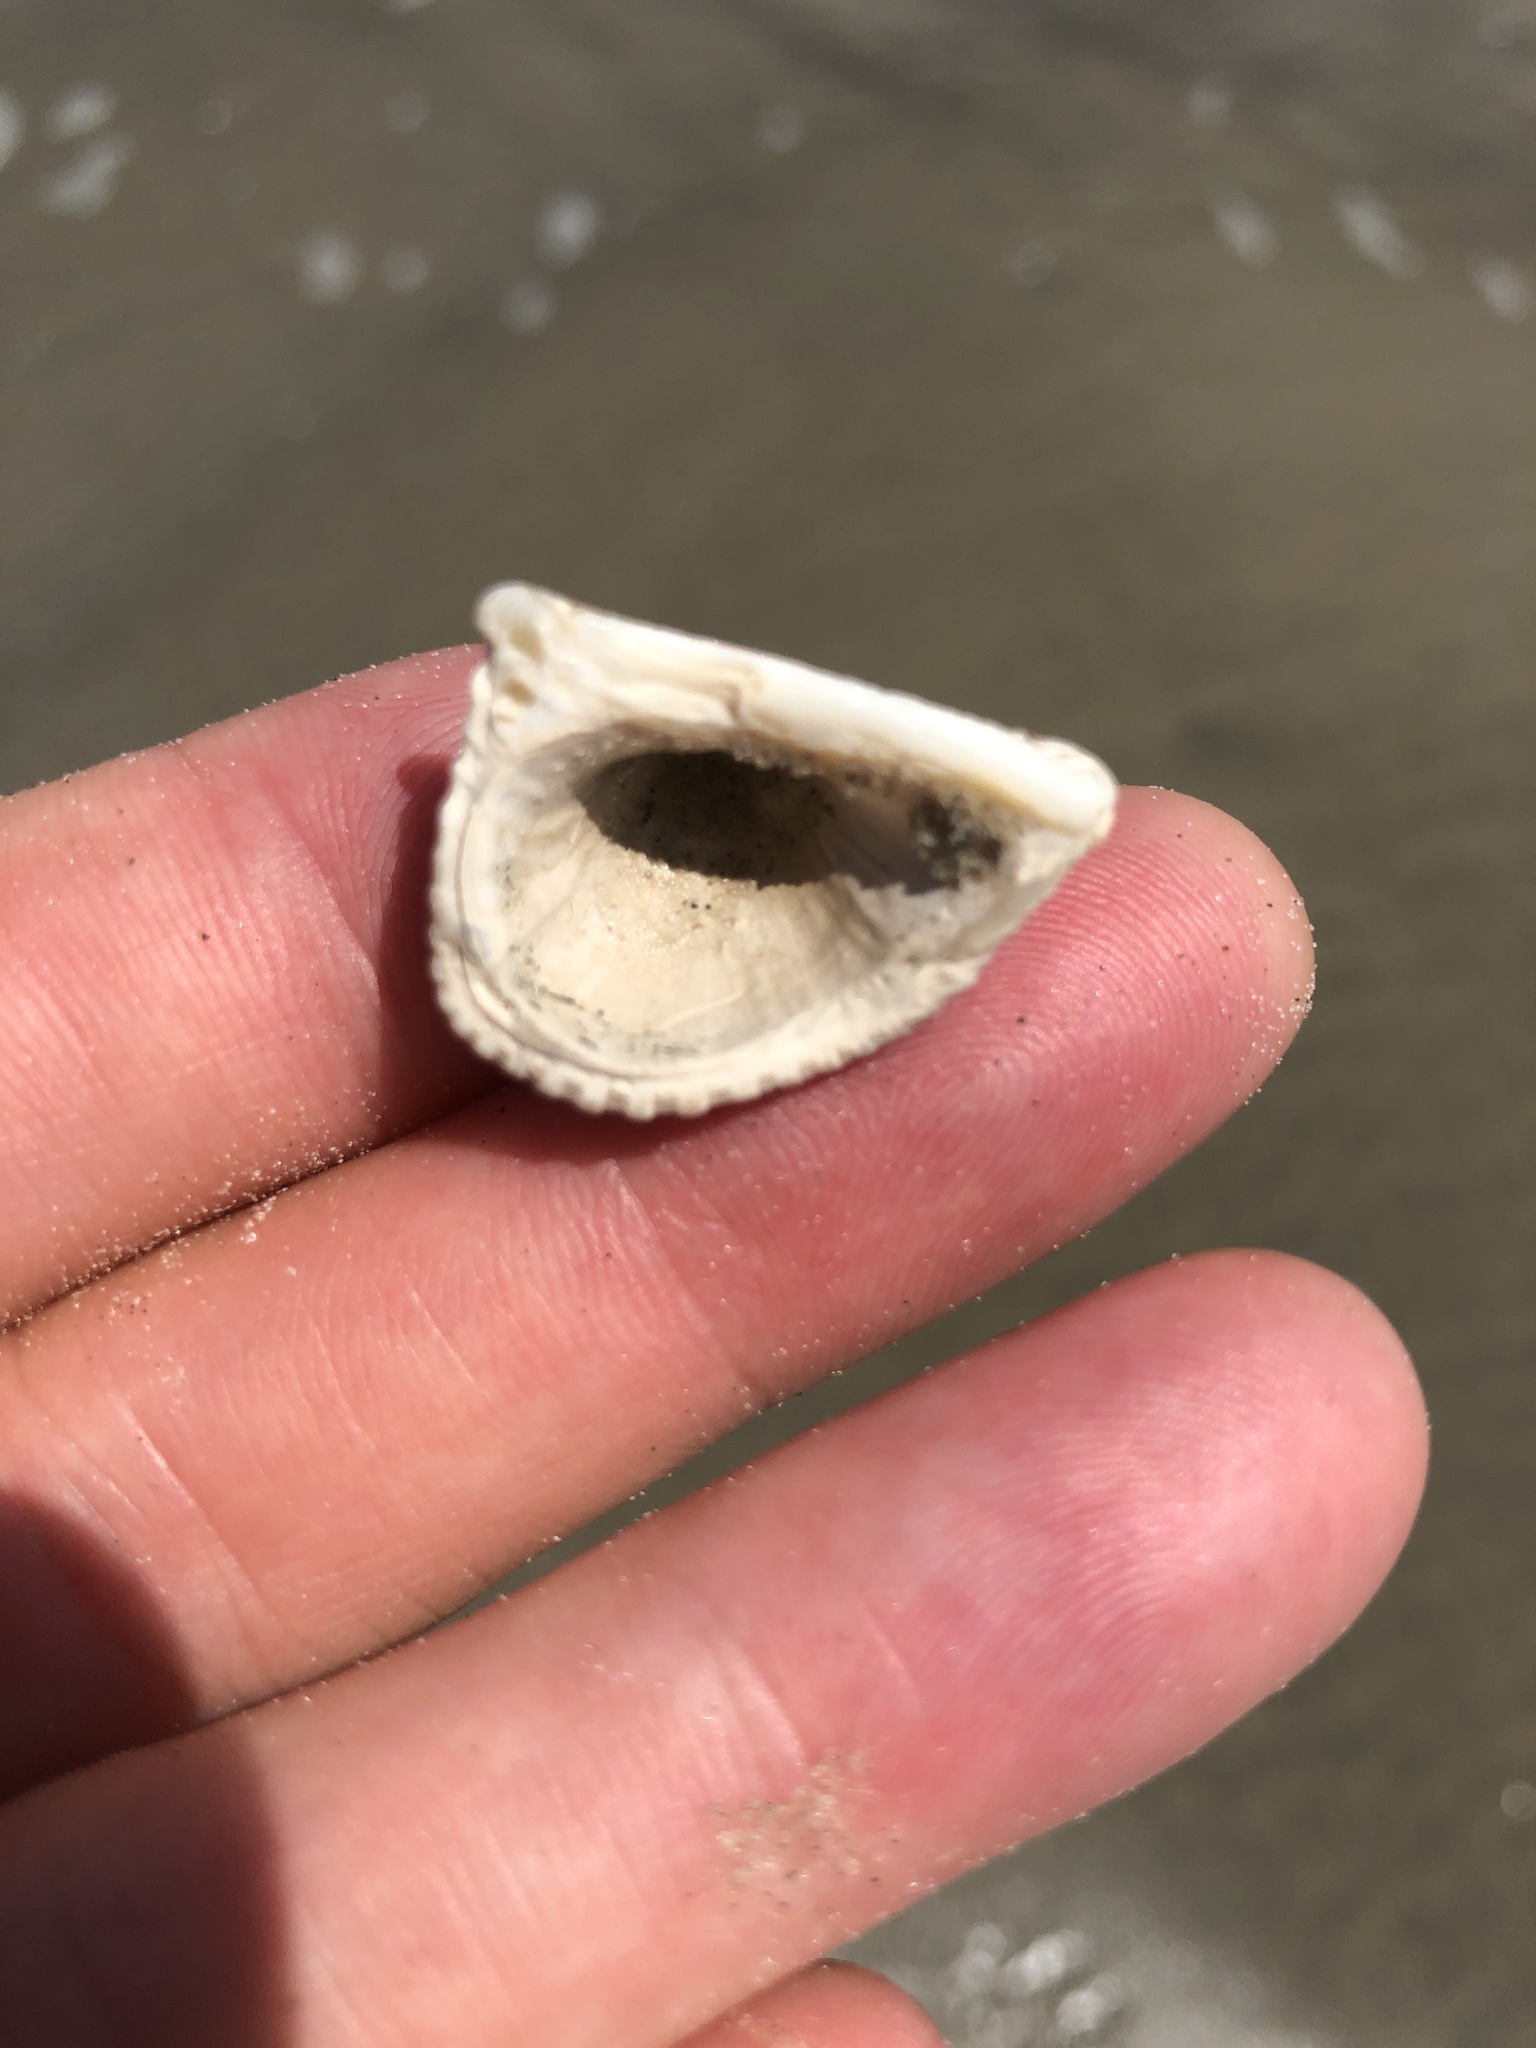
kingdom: Animalia
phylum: Mollusca
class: Bivalvia
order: Arcida
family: Noetiidae
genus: Noetia
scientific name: Noetia ponderosa
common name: Ponderous ark
